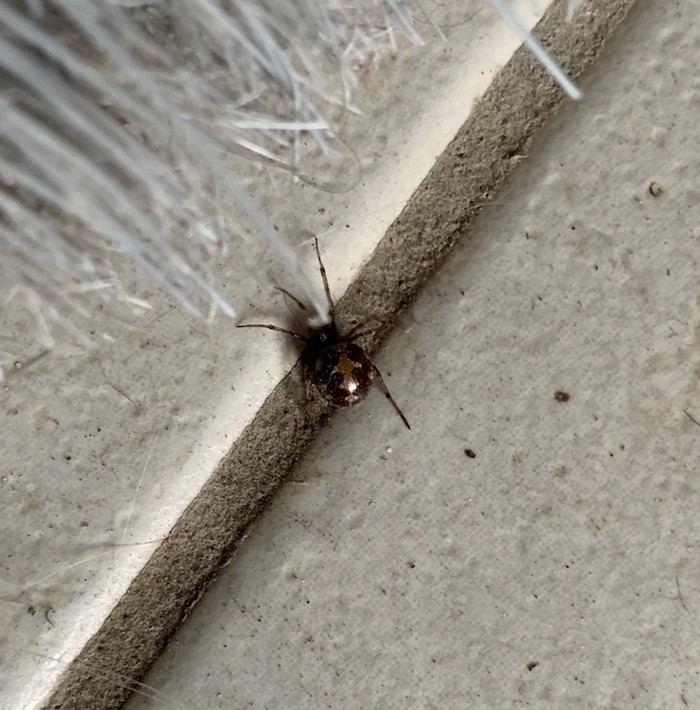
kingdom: Animalia
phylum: Arthropoda
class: Arachnida
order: Araneae
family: Theridiidae
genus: Steatoda
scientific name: Steatoda triangulosa
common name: Triangulate bud spider
